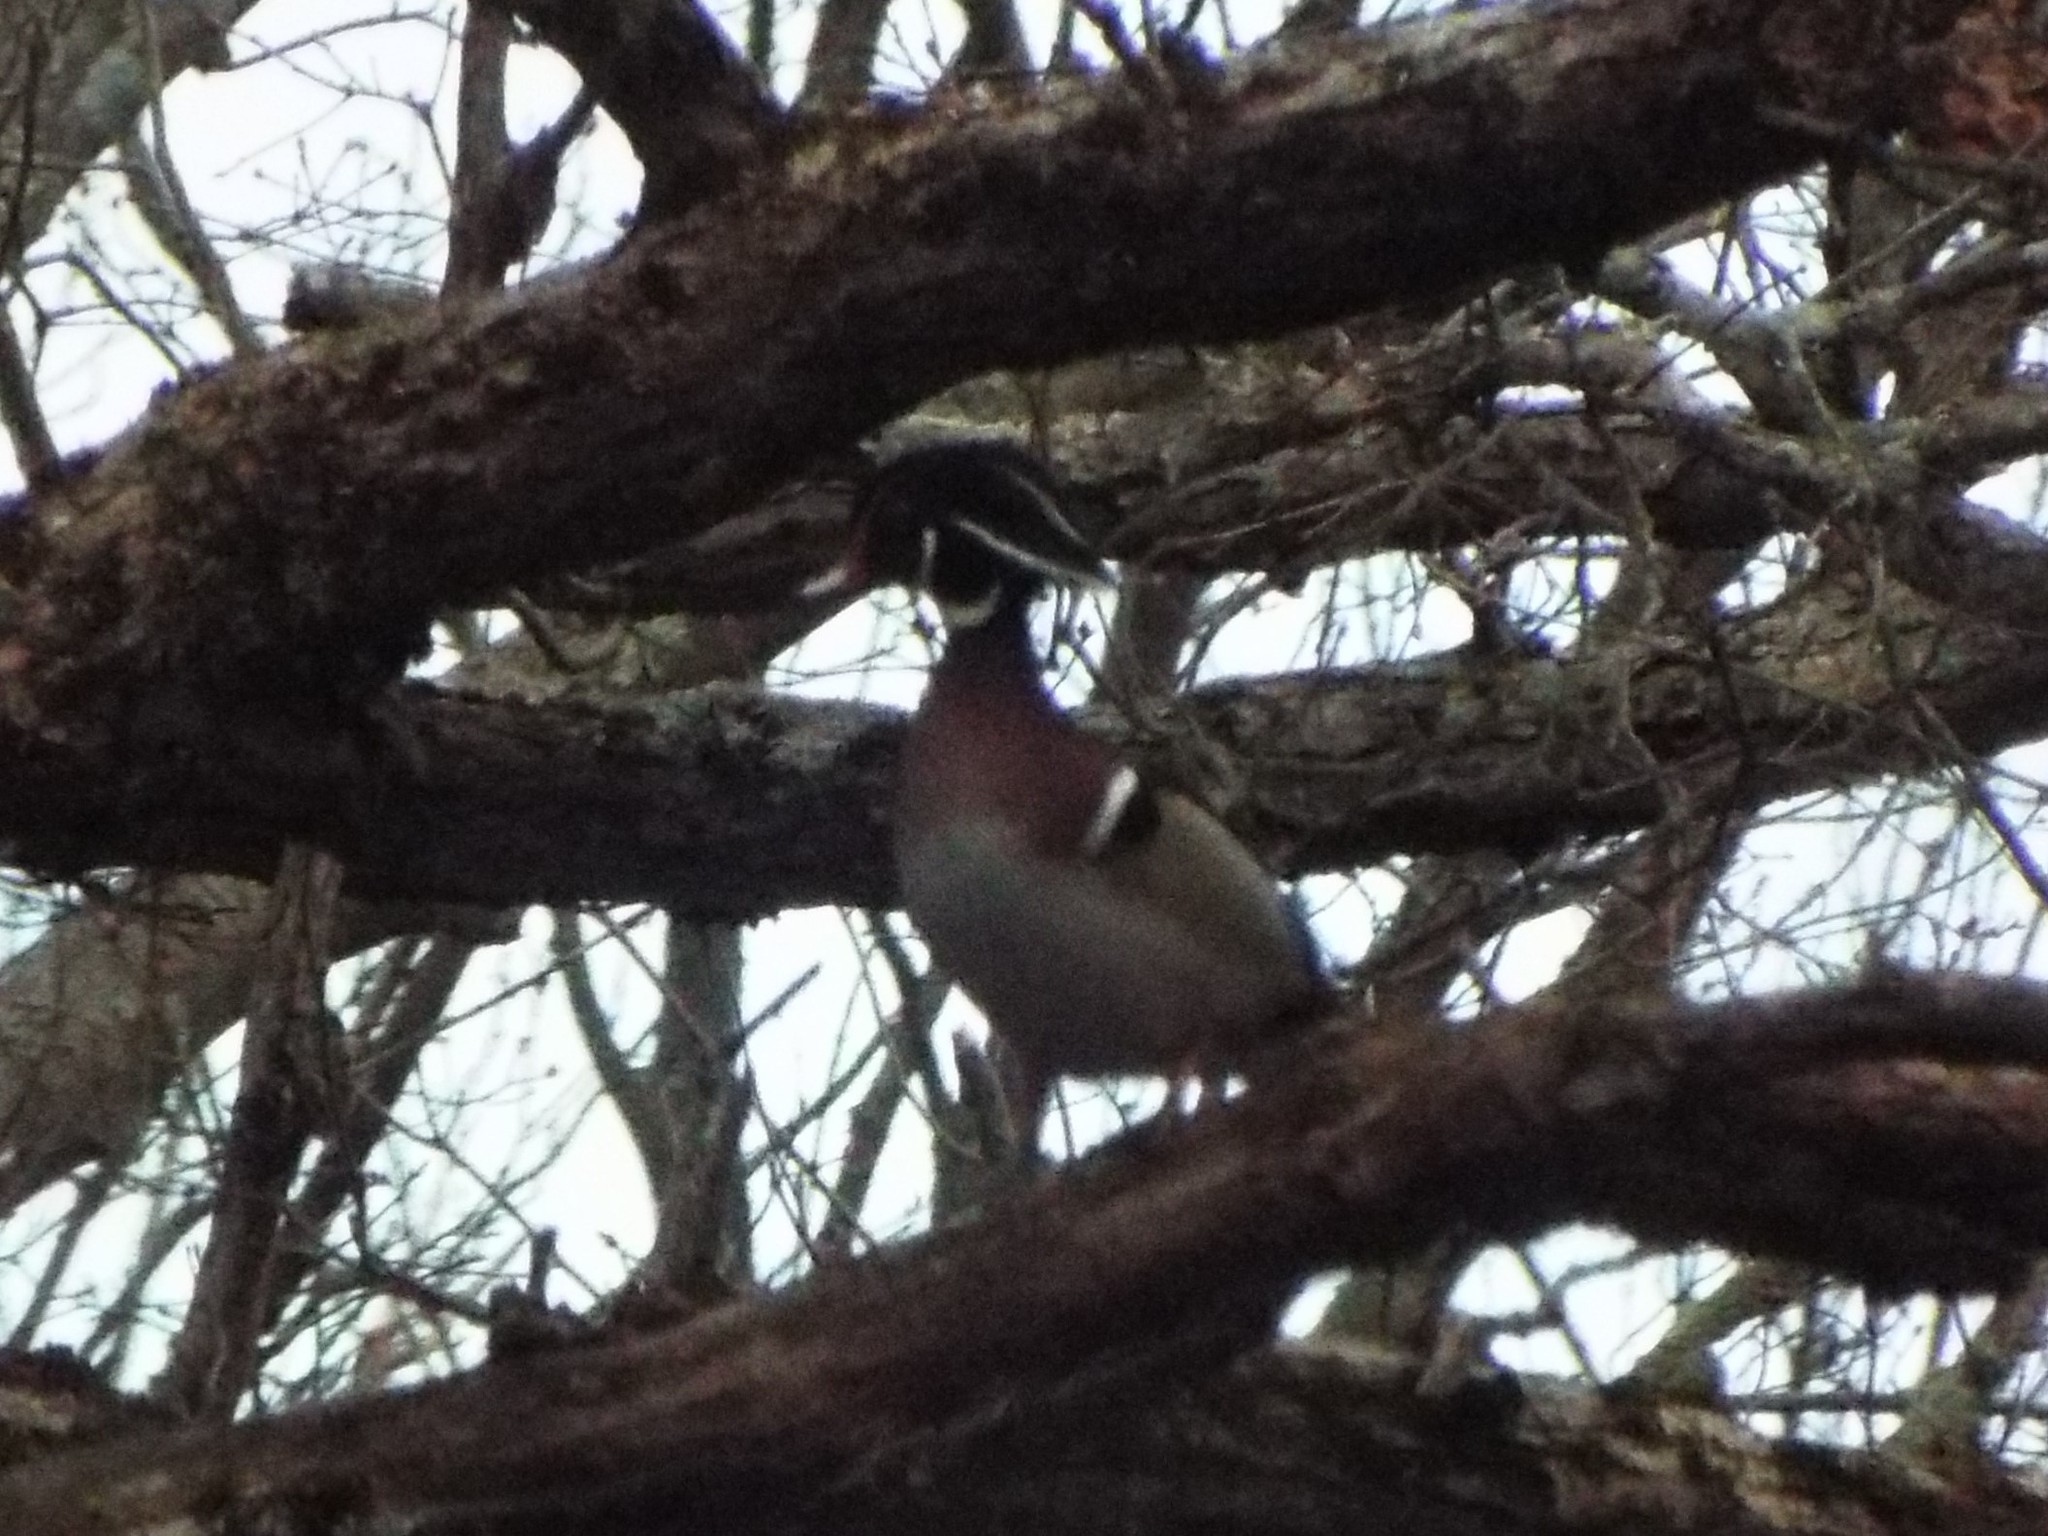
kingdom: Animalia
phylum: Chordata
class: Aves
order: Anseriformes
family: Anatidae
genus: Aix
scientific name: Aix sponsa
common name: Wood duck
